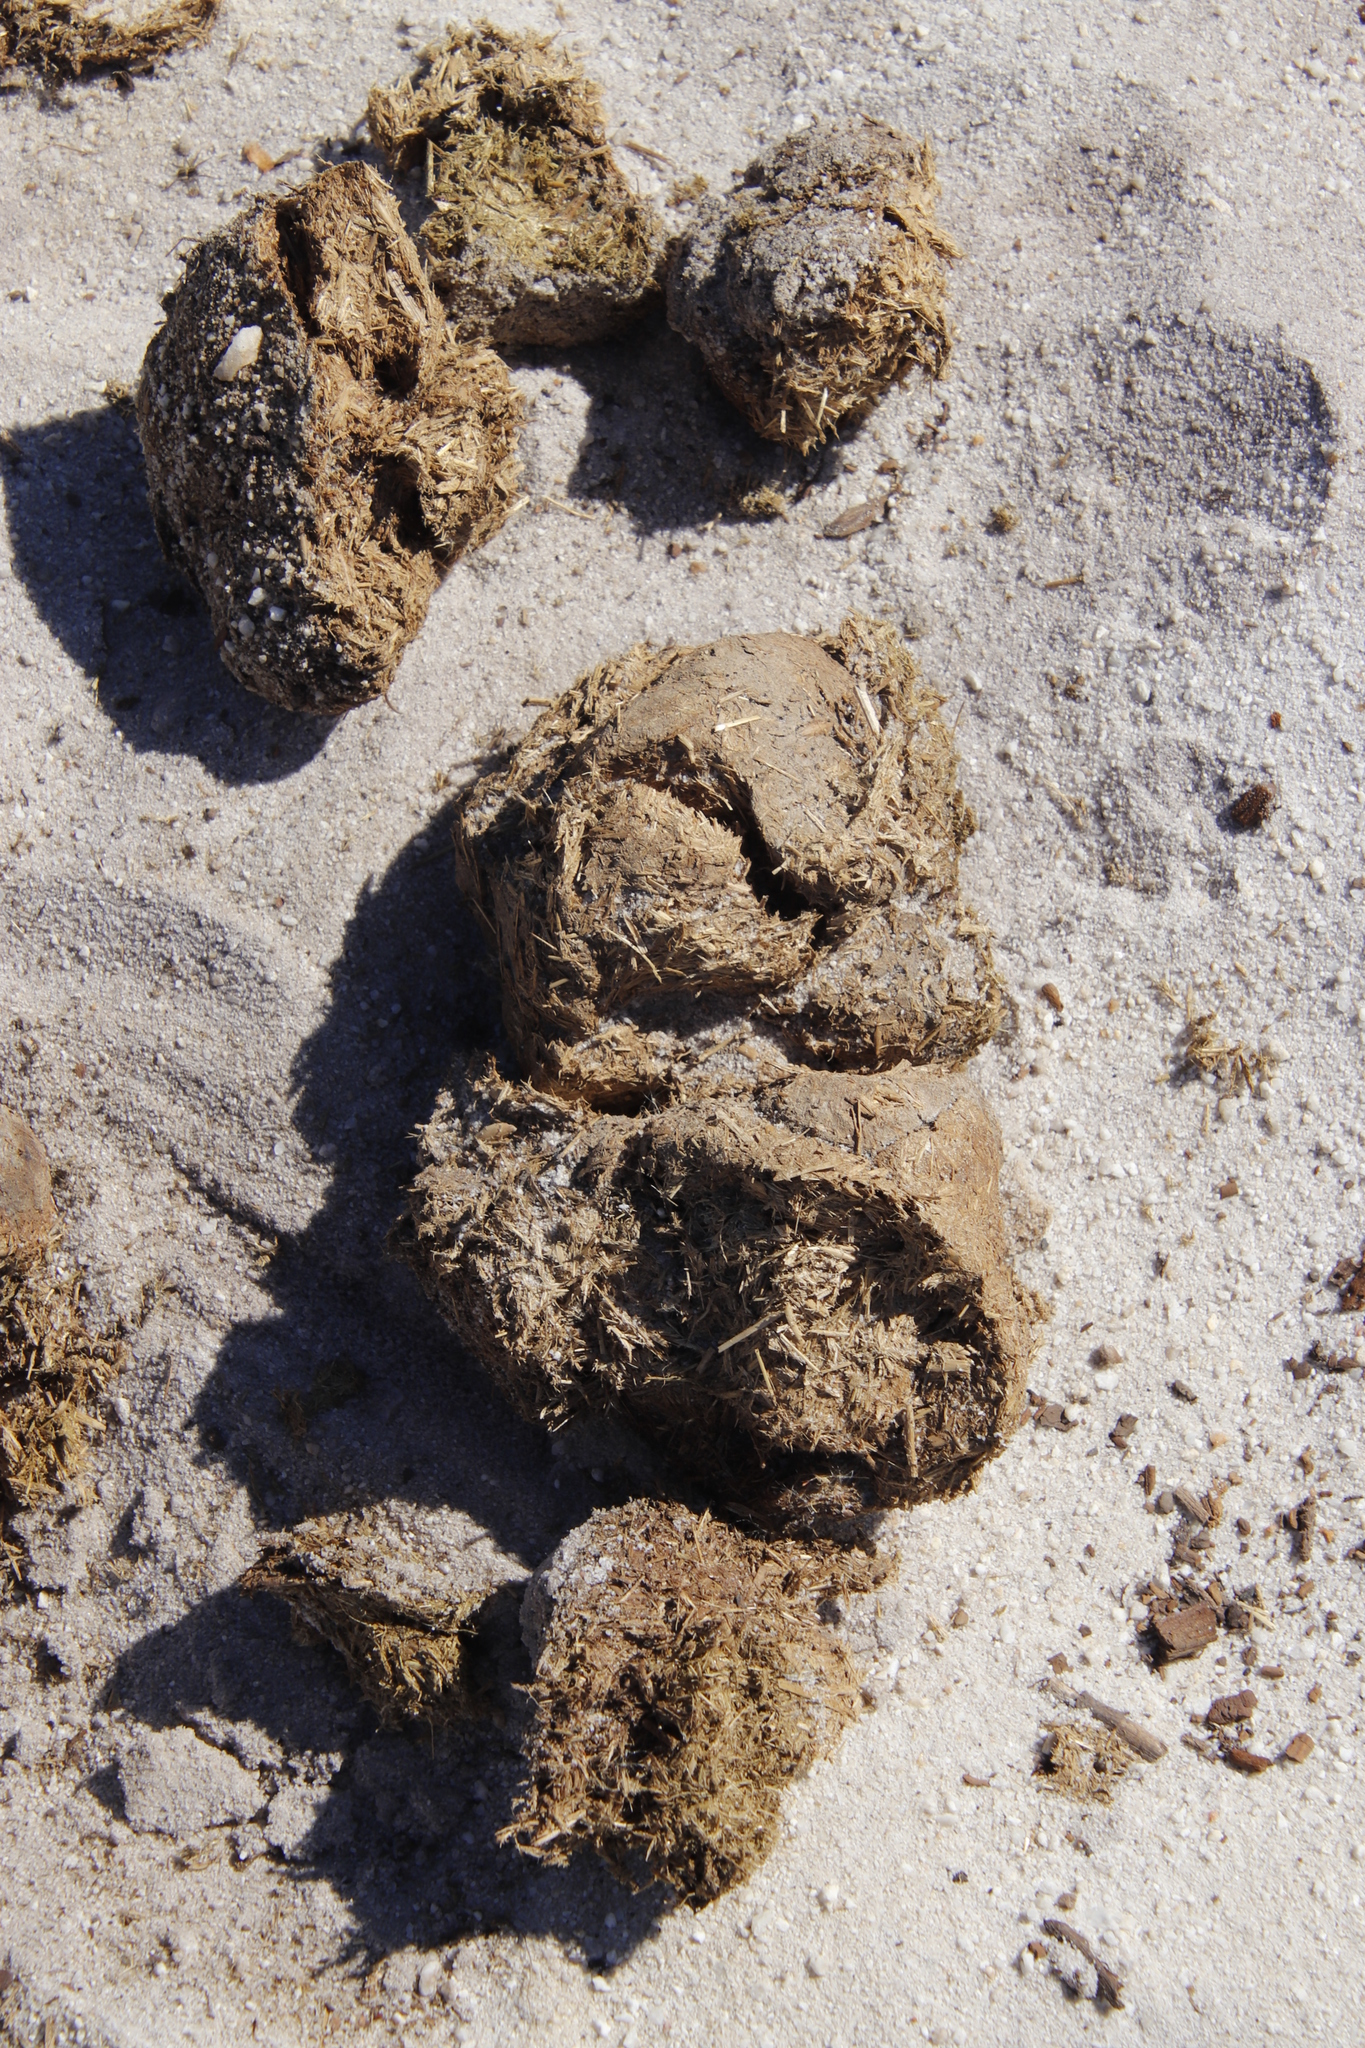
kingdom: Animalia
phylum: Chordata
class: Mammalia
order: Perissodactyla
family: Equidae
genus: Equus
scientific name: Equus caballus
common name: Horse
